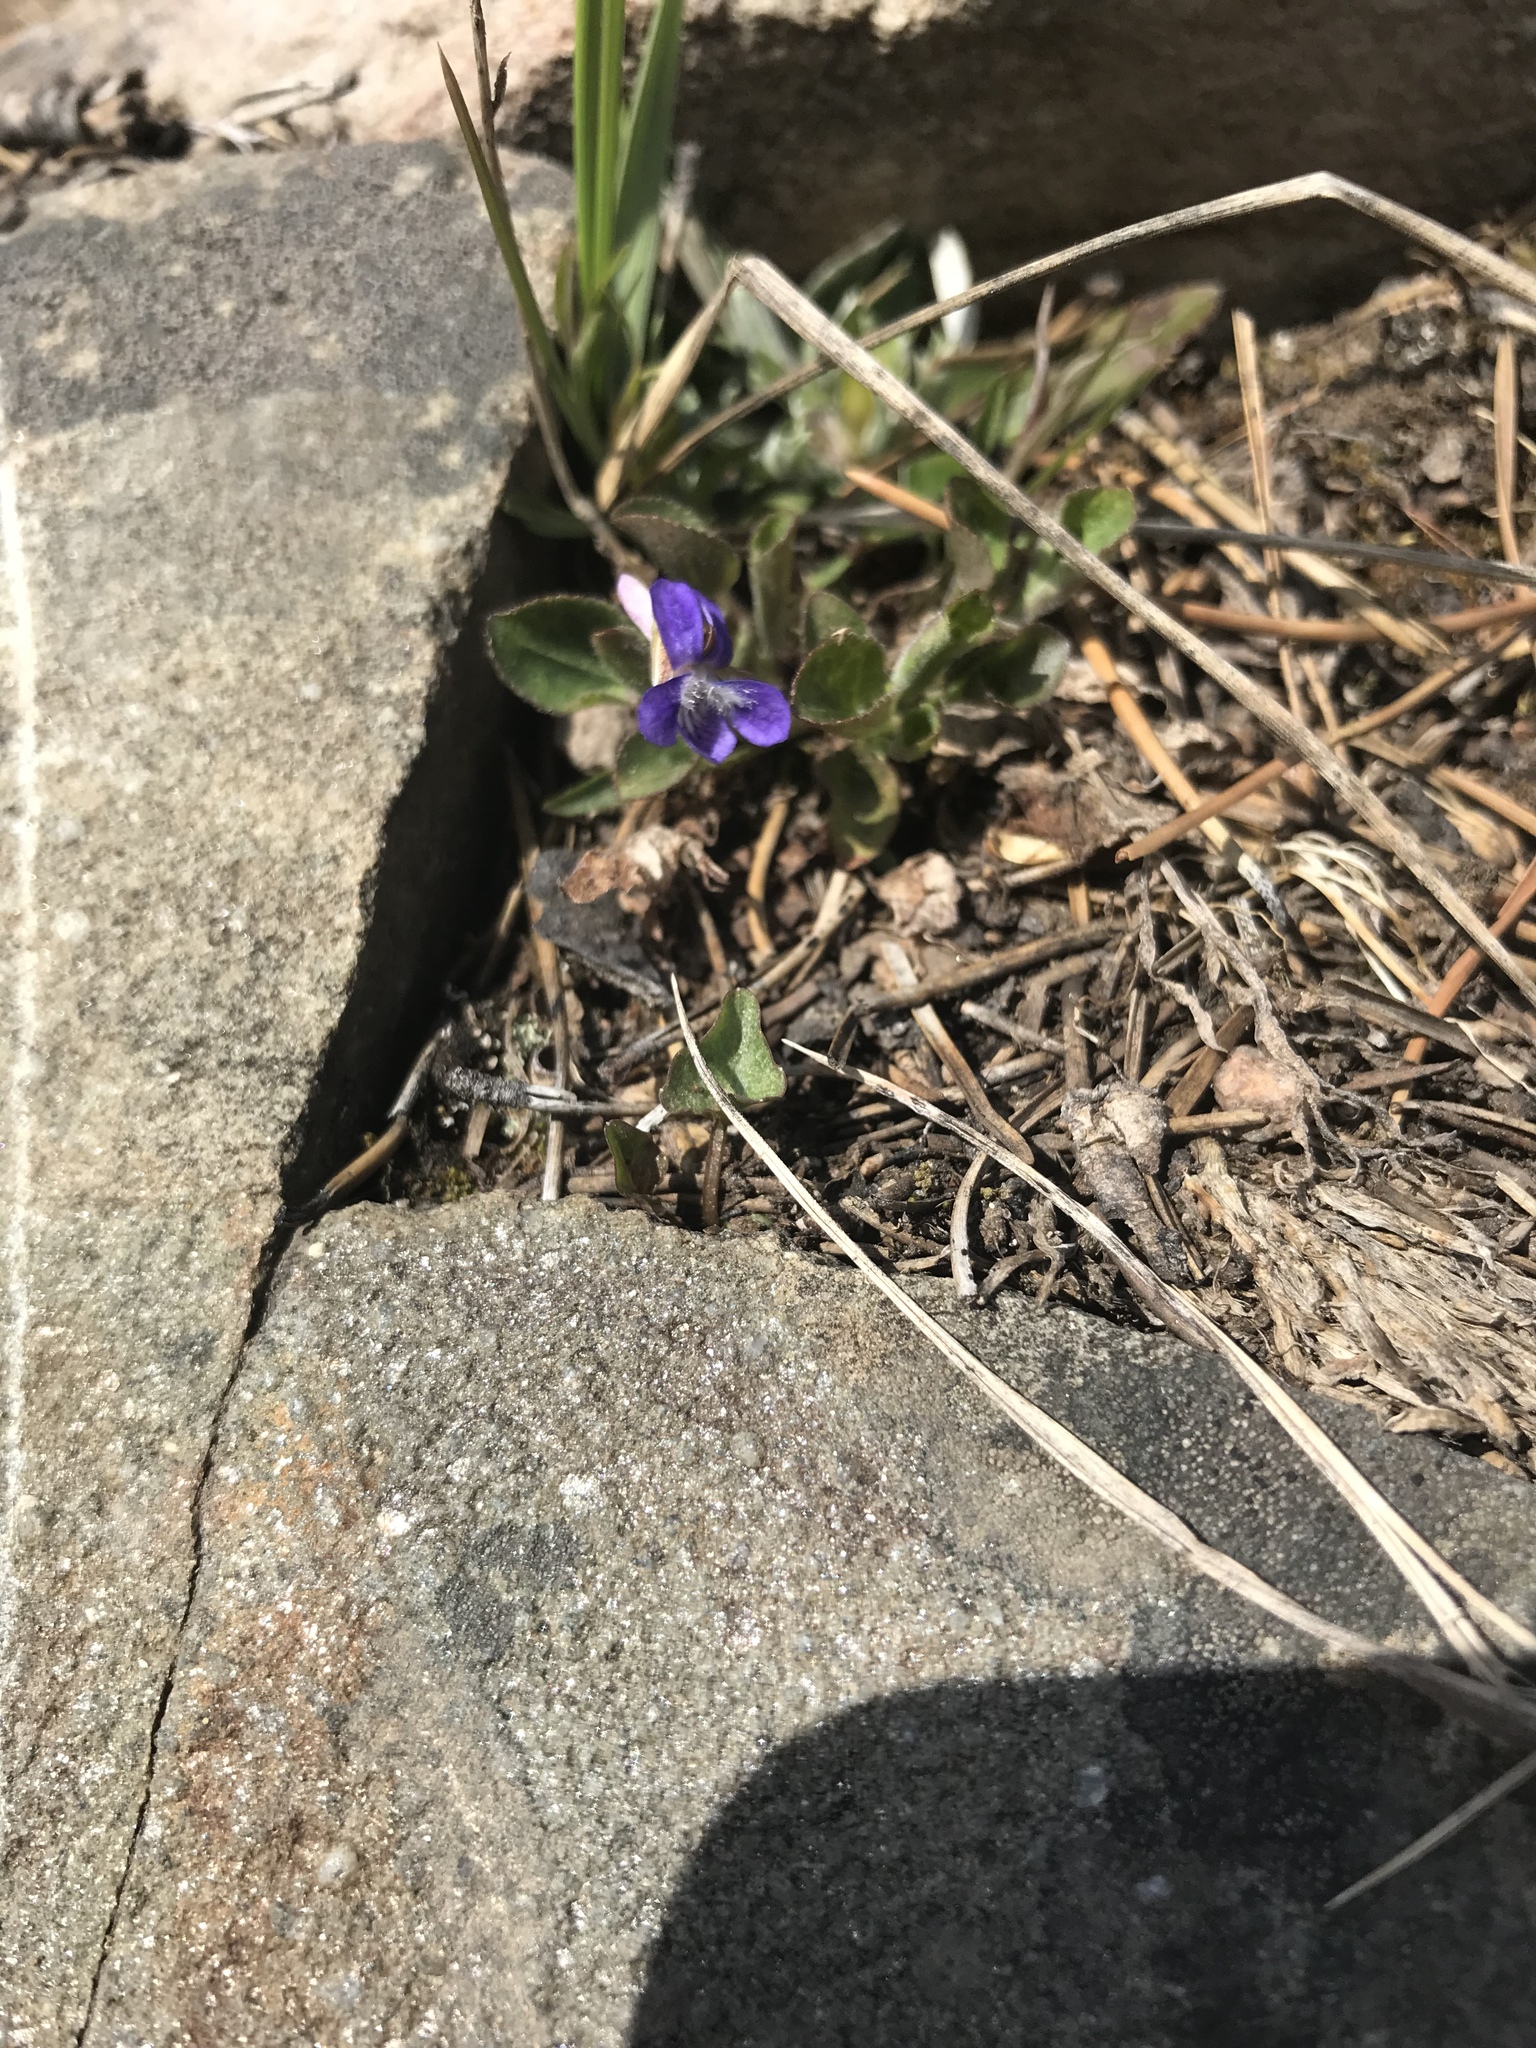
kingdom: Plantae
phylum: Tracheophyta
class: Magnoliopsida
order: Malpighiales
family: Violaceae
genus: Viola
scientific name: Viola adunca
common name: Sand violet
